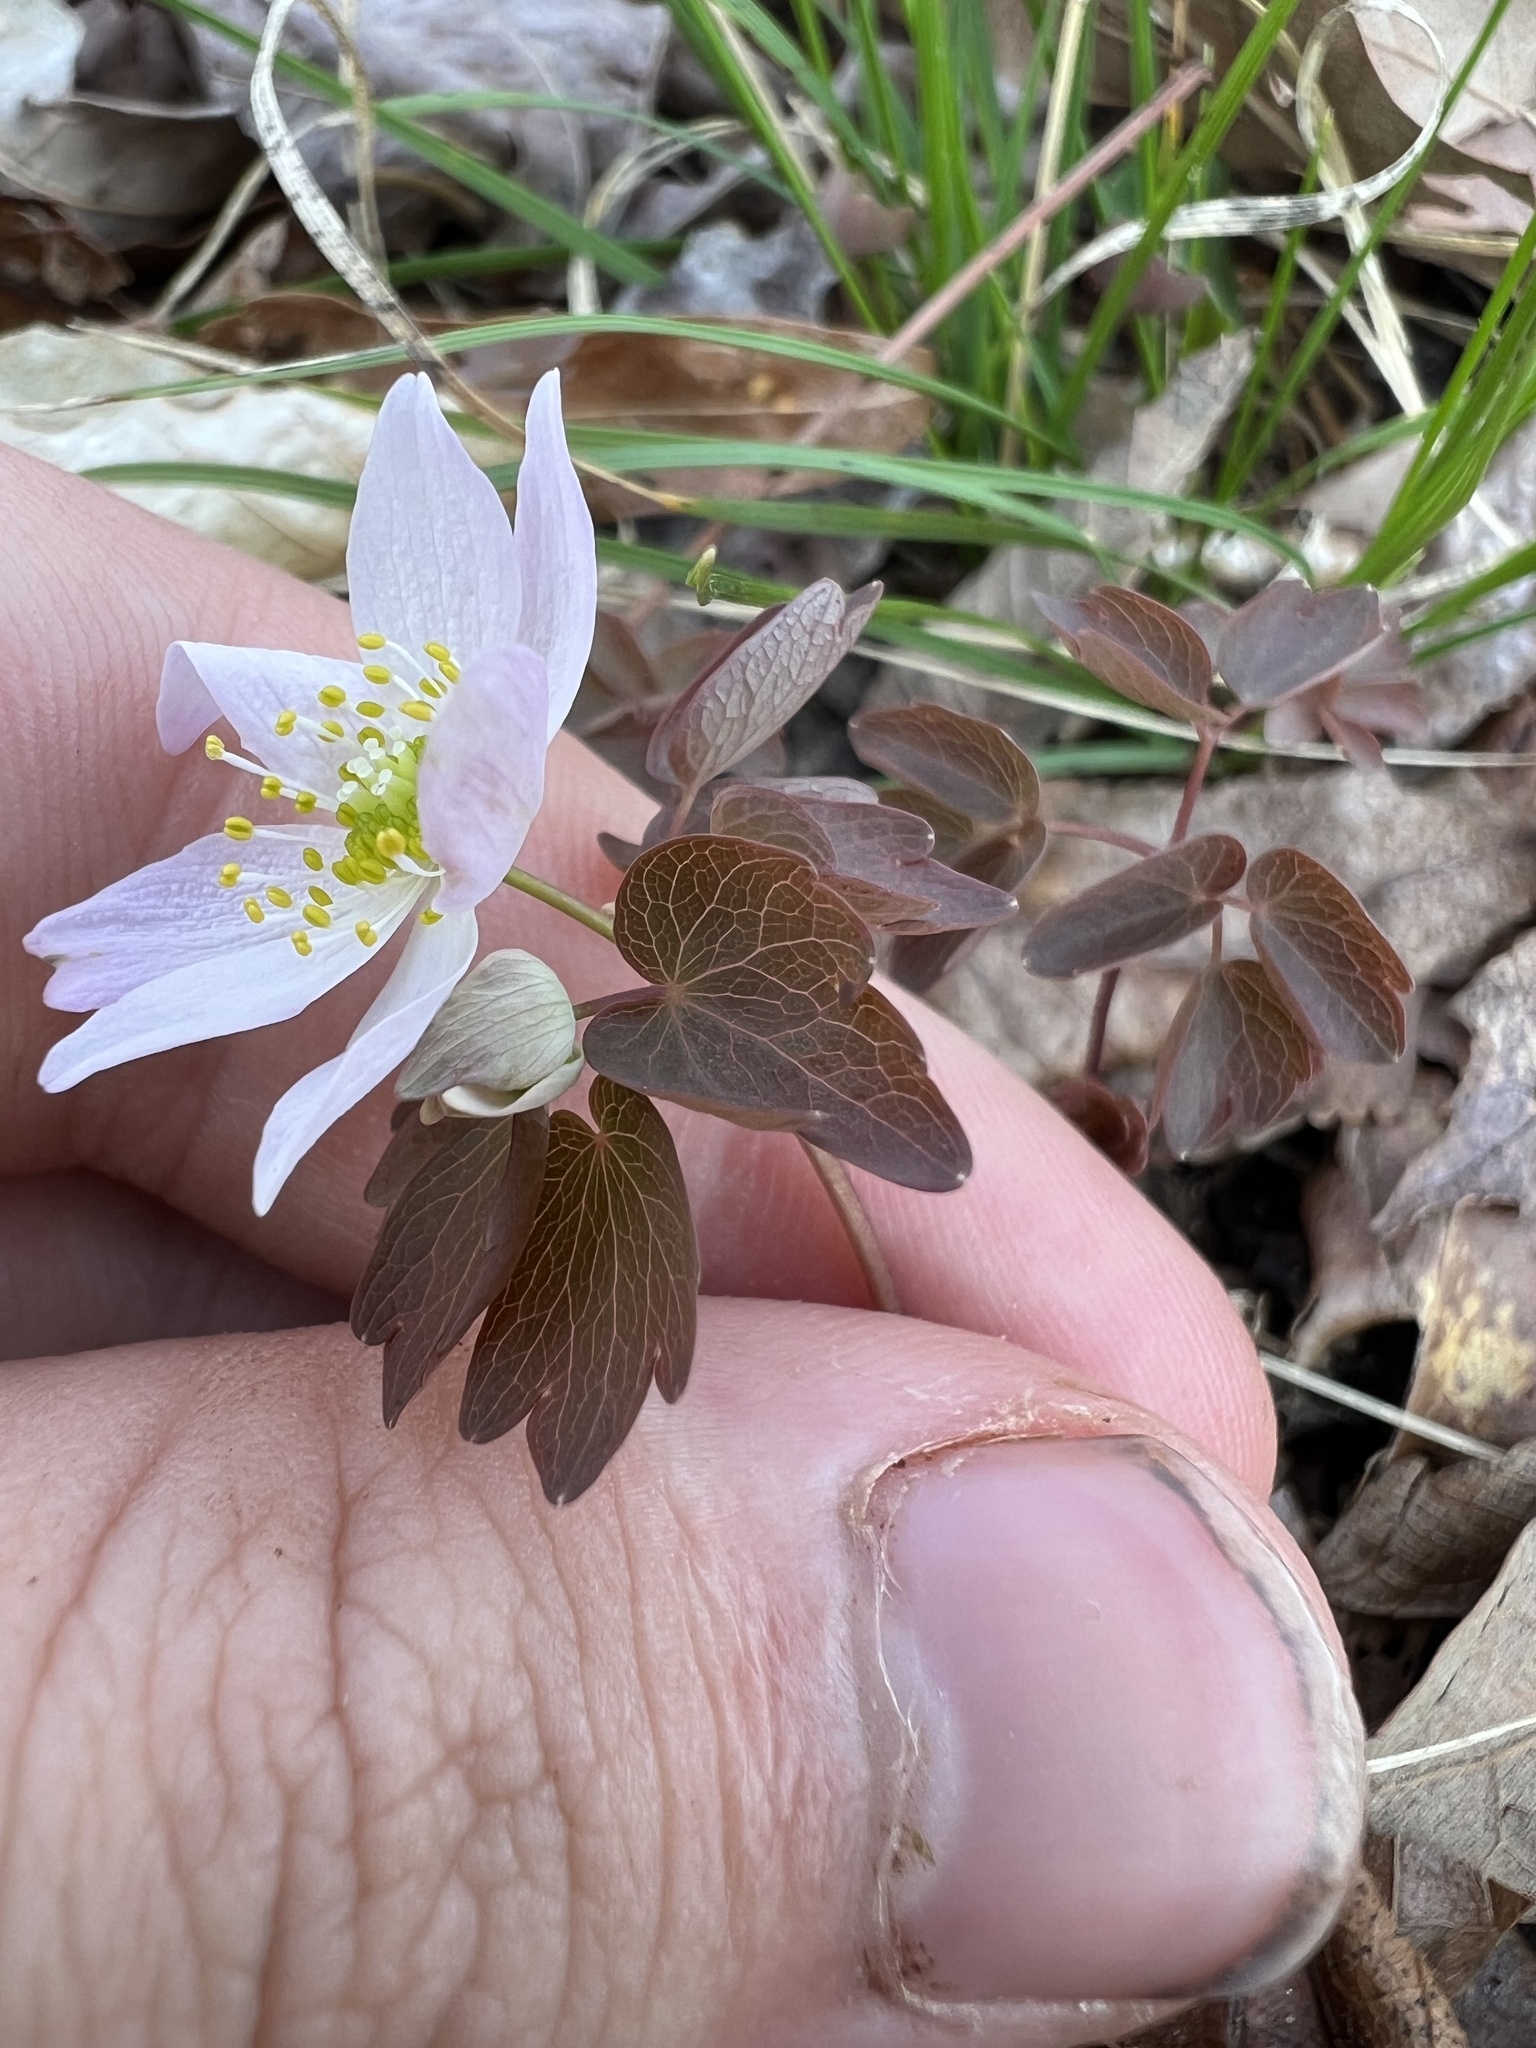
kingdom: Plantae
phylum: Tracheophyta
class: Magnoliopsida
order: Ranunculales
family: Ranunculaceae
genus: Thalictrum
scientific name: Thalictrum thalictroides
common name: Rue-anemone
